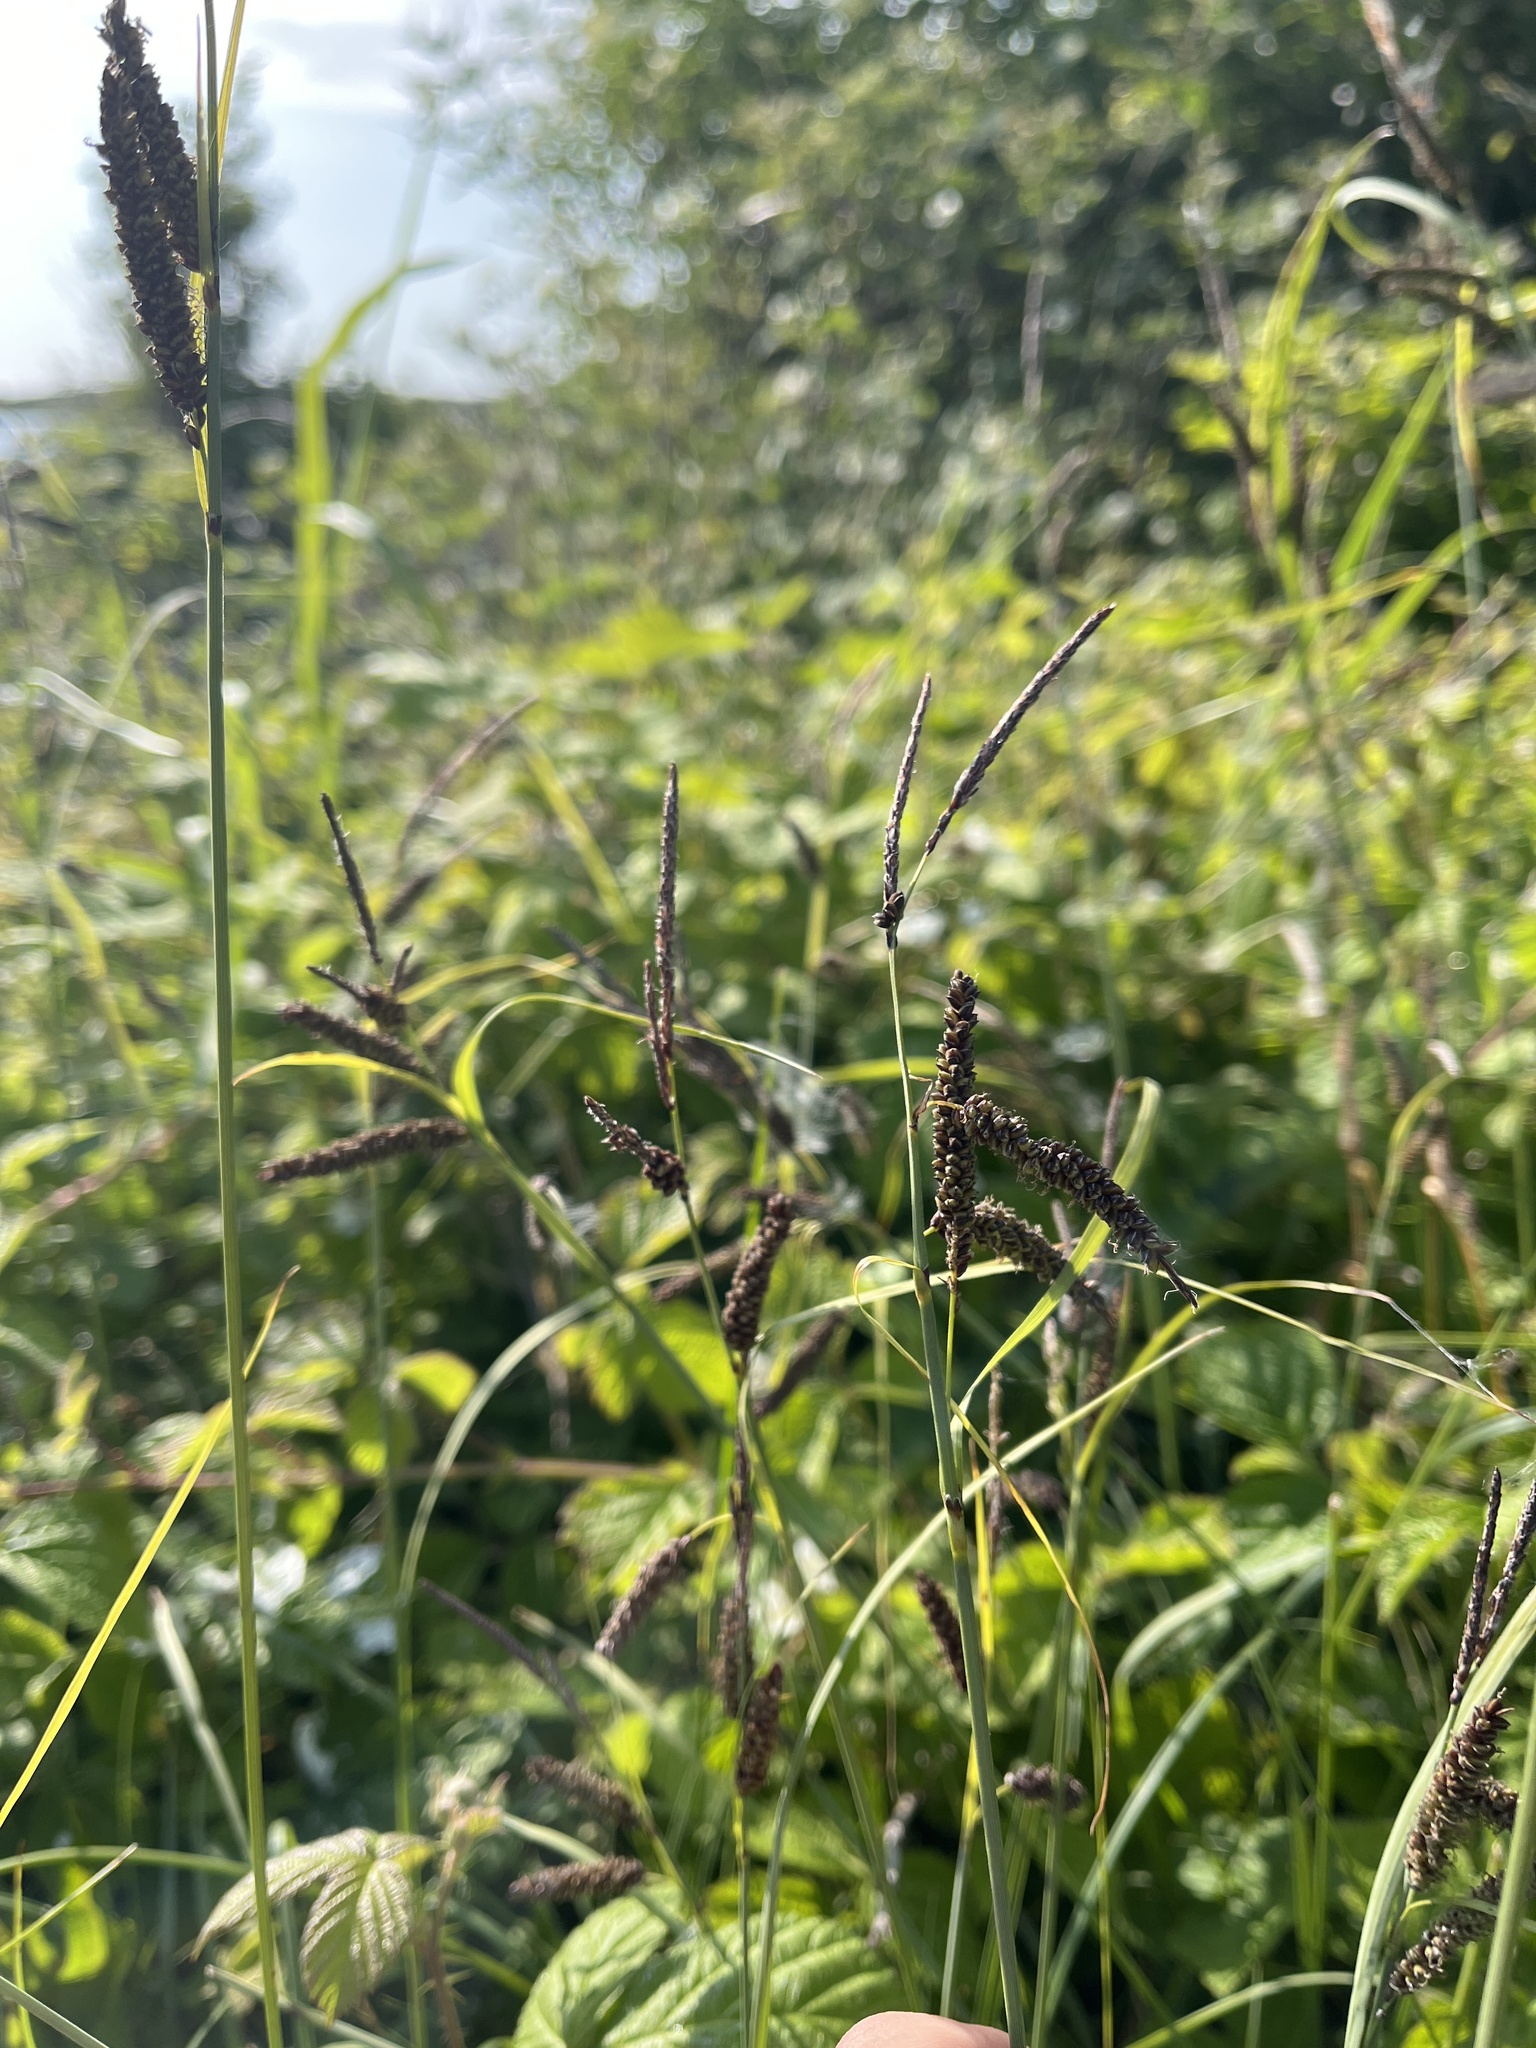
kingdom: Plantae
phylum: Tracheophyta
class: Liliopsida
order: Poales
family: Cyperaceae
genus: Carex
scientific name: Carex flacca
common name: Glaucous sedge
